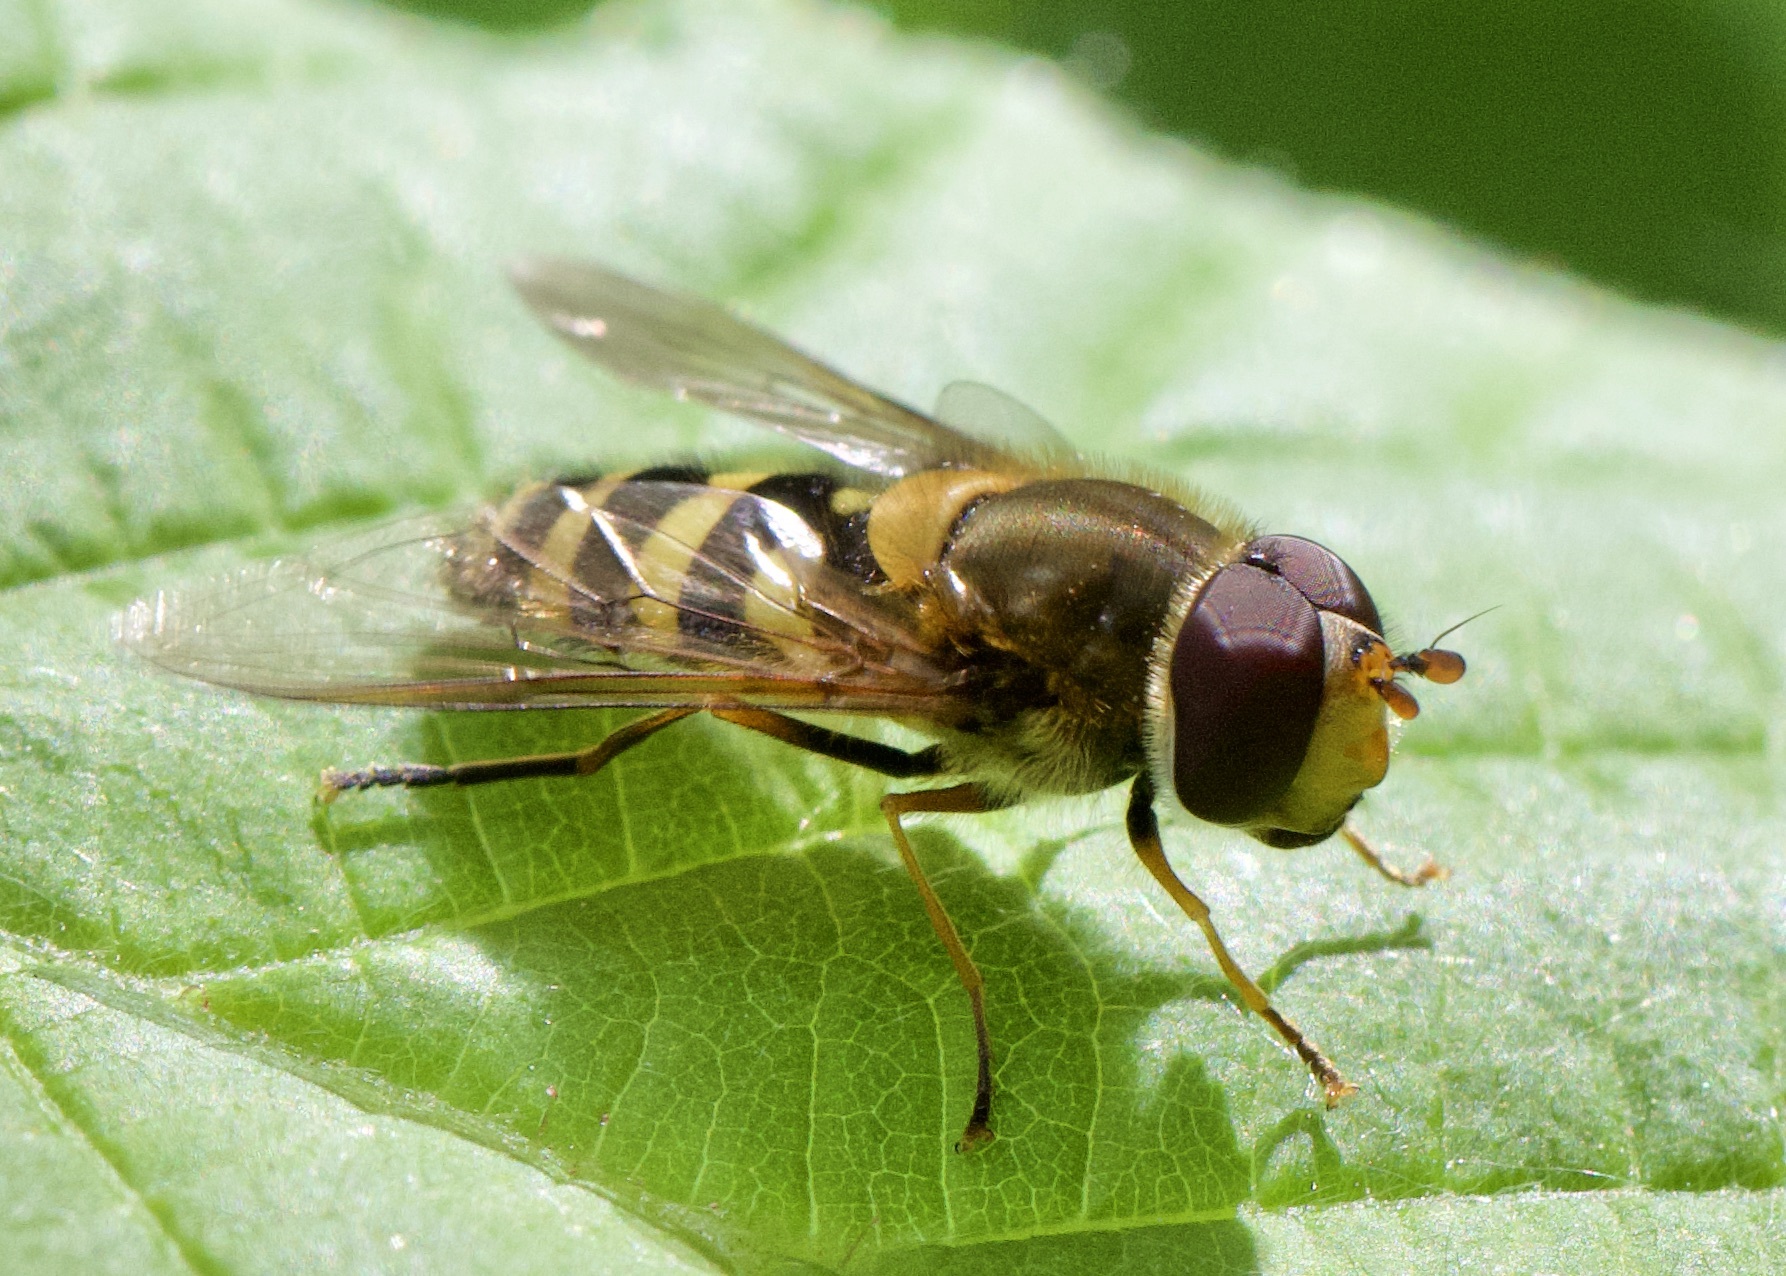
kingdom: Animalia
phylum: Arthropoda
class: Insecta
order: Diptera
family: Syrphidae
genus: Syrphus
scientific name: Syrphus
